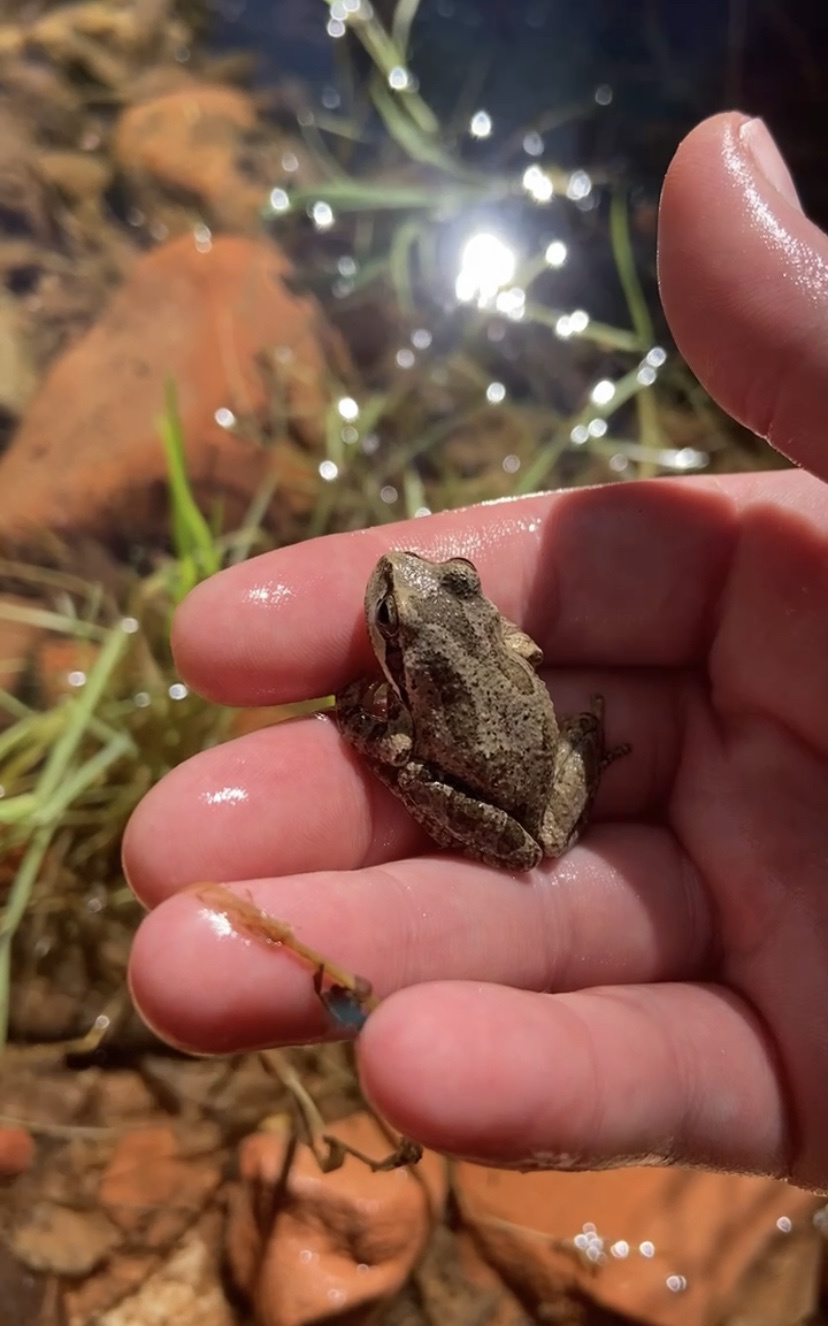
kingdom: Animalia
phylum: Chordata
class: Amphibia
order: Anura
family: Hylidae
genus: Pseudacris
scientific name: Pseudacris regilla
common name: Pacific chorus frog
